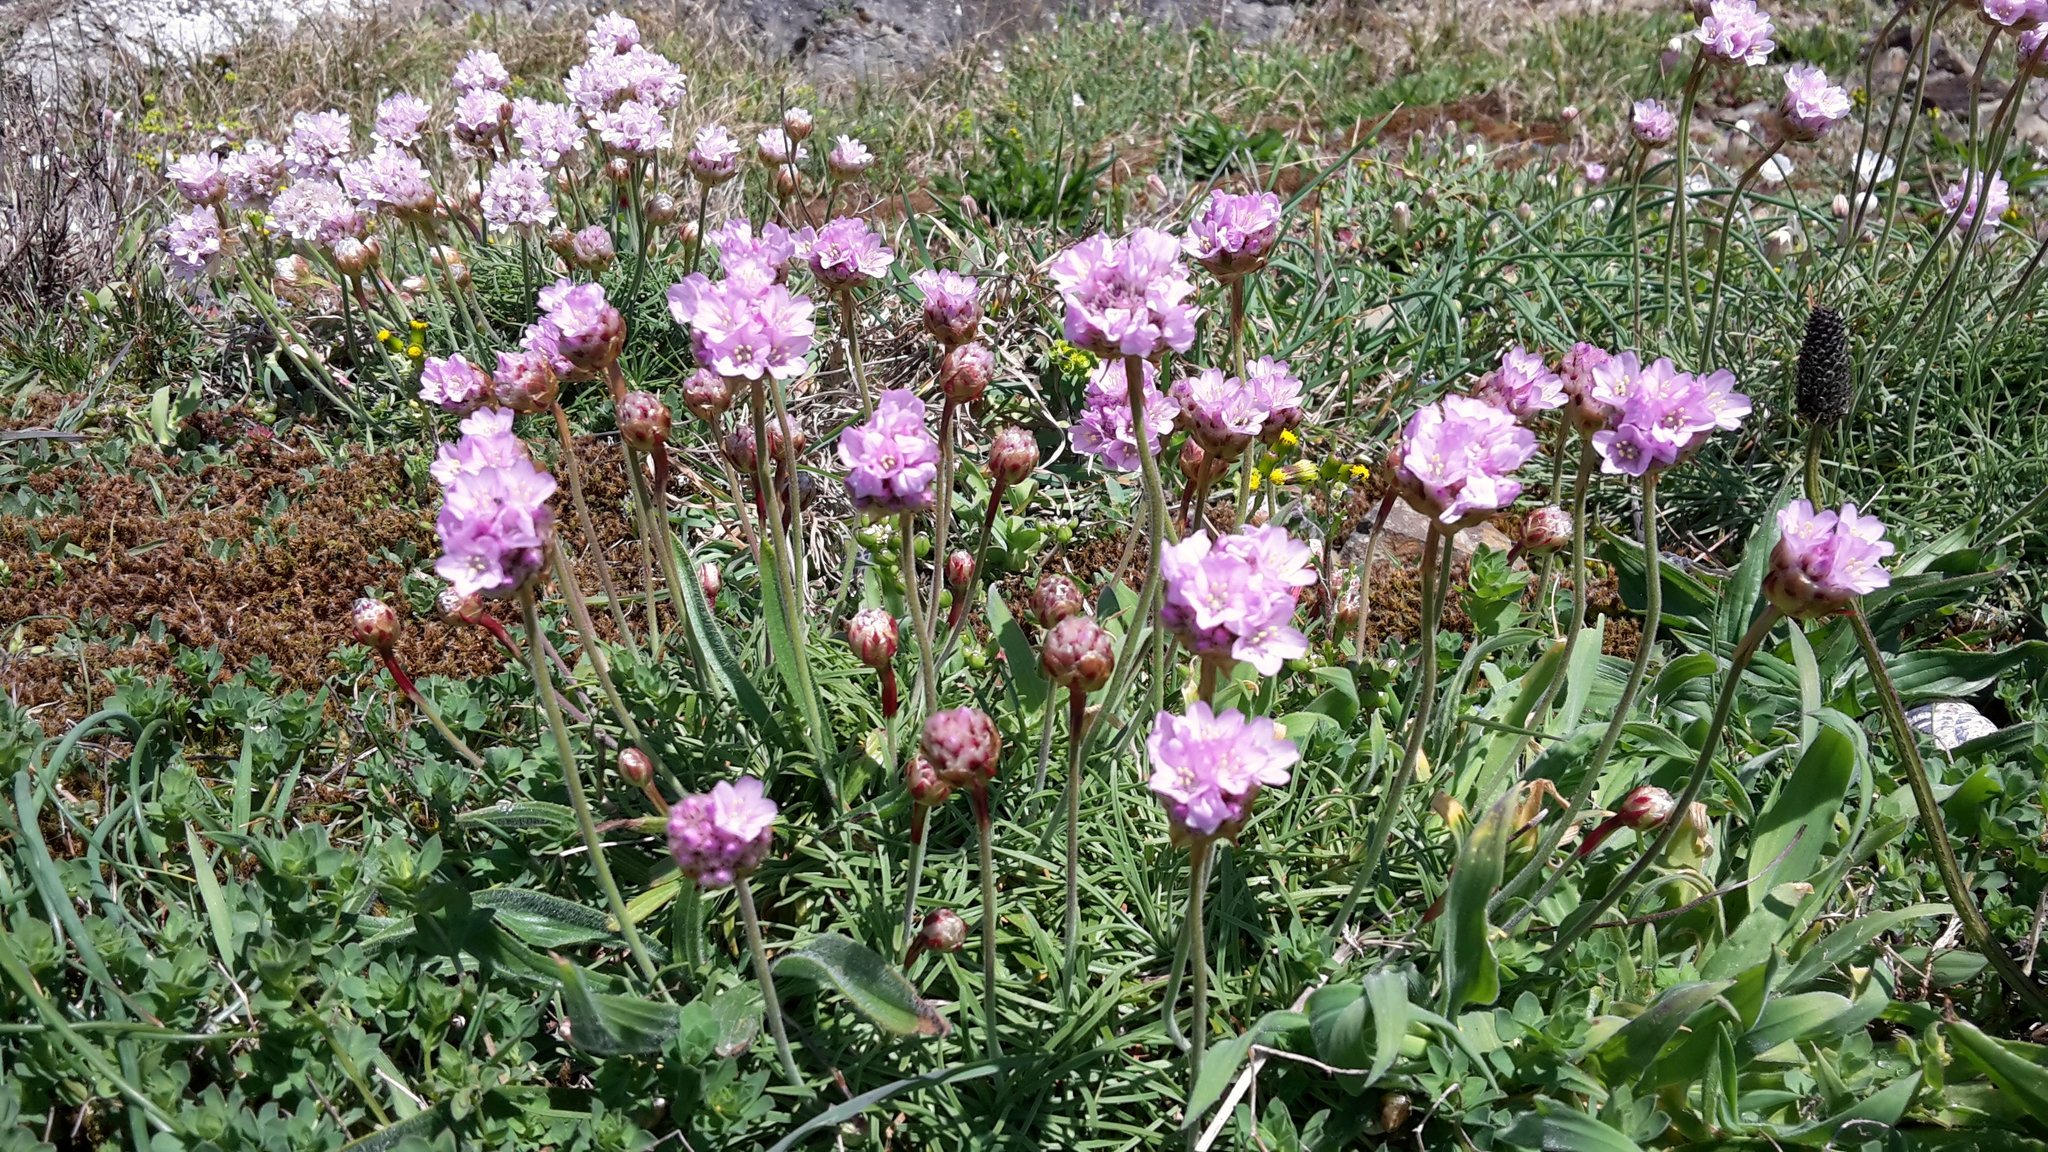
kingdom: Plantae
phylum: Tracheophyta
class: Magnoliopsida
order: Caryophyllales
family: Plumbaginaceae
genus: Armeria
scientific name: Armeria maritima
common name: Thrift
